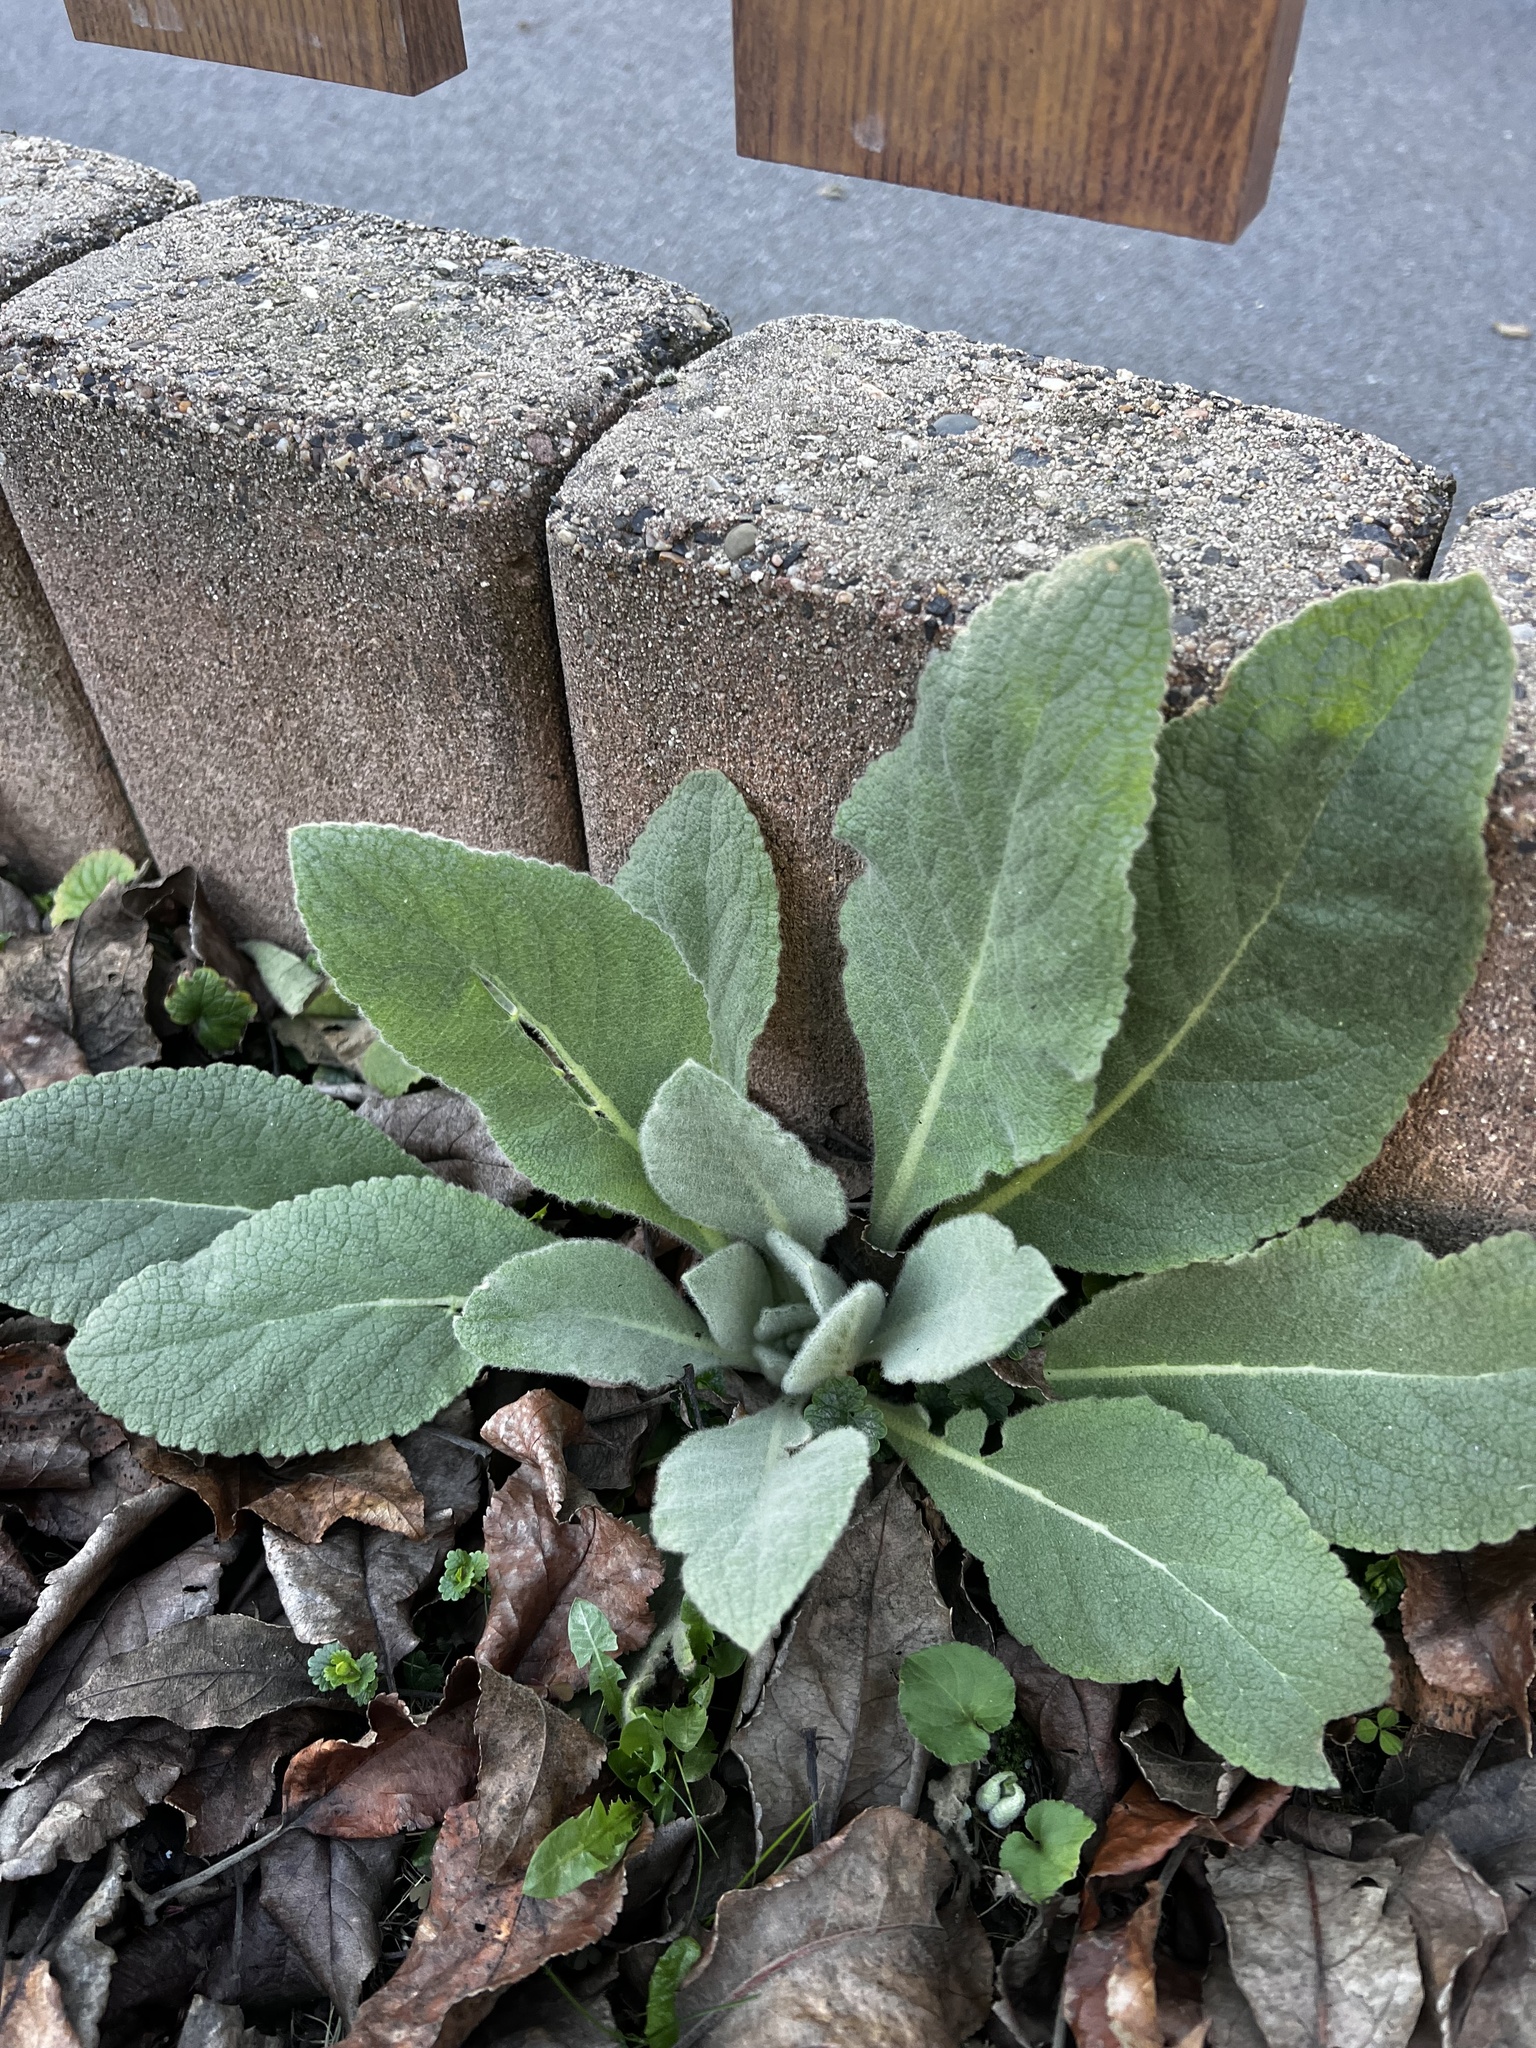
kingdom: Plantae
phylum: Tracheophyta
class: Magnoliopsida
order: Lamiales
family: Scrophulariaceae
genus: Verbascum
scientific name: Verbascum thapsus
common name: Common mullein
